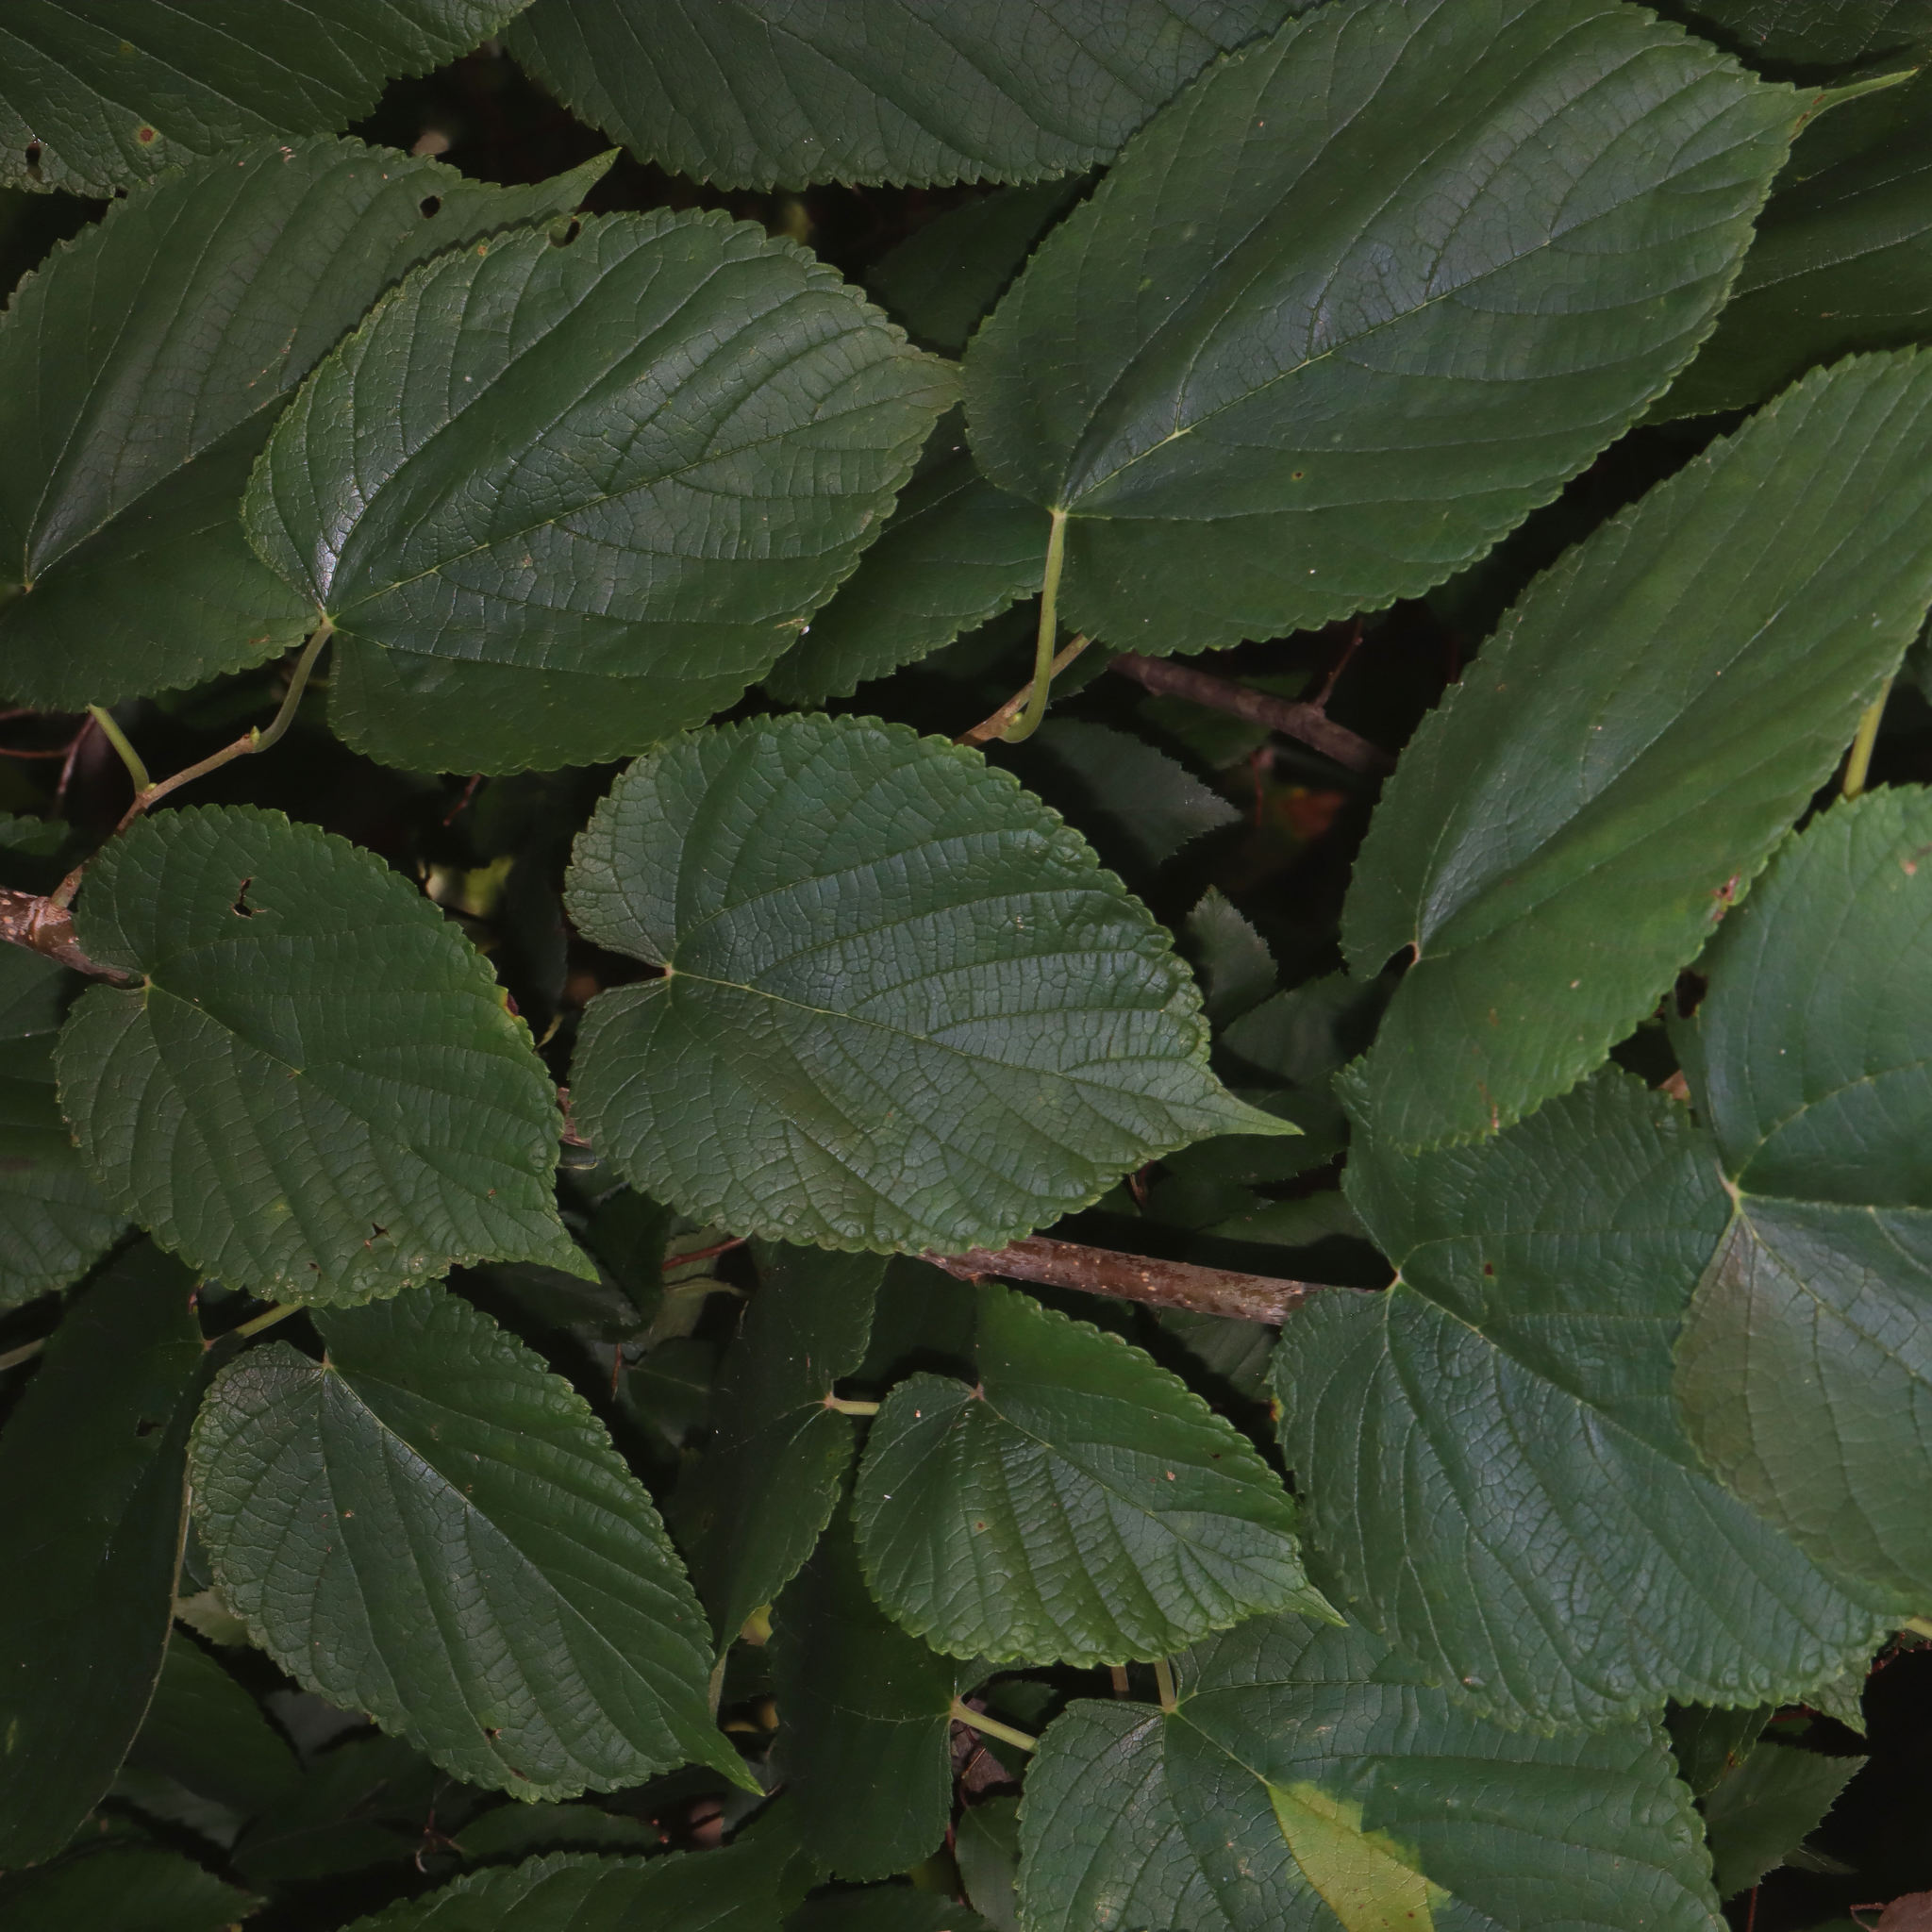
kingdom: Plantae
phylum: Tracheophyta
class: Magnoliopsida
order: Rosales
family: Moraceae
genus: Morus
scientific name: Morus rubra
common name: Red mulberry
